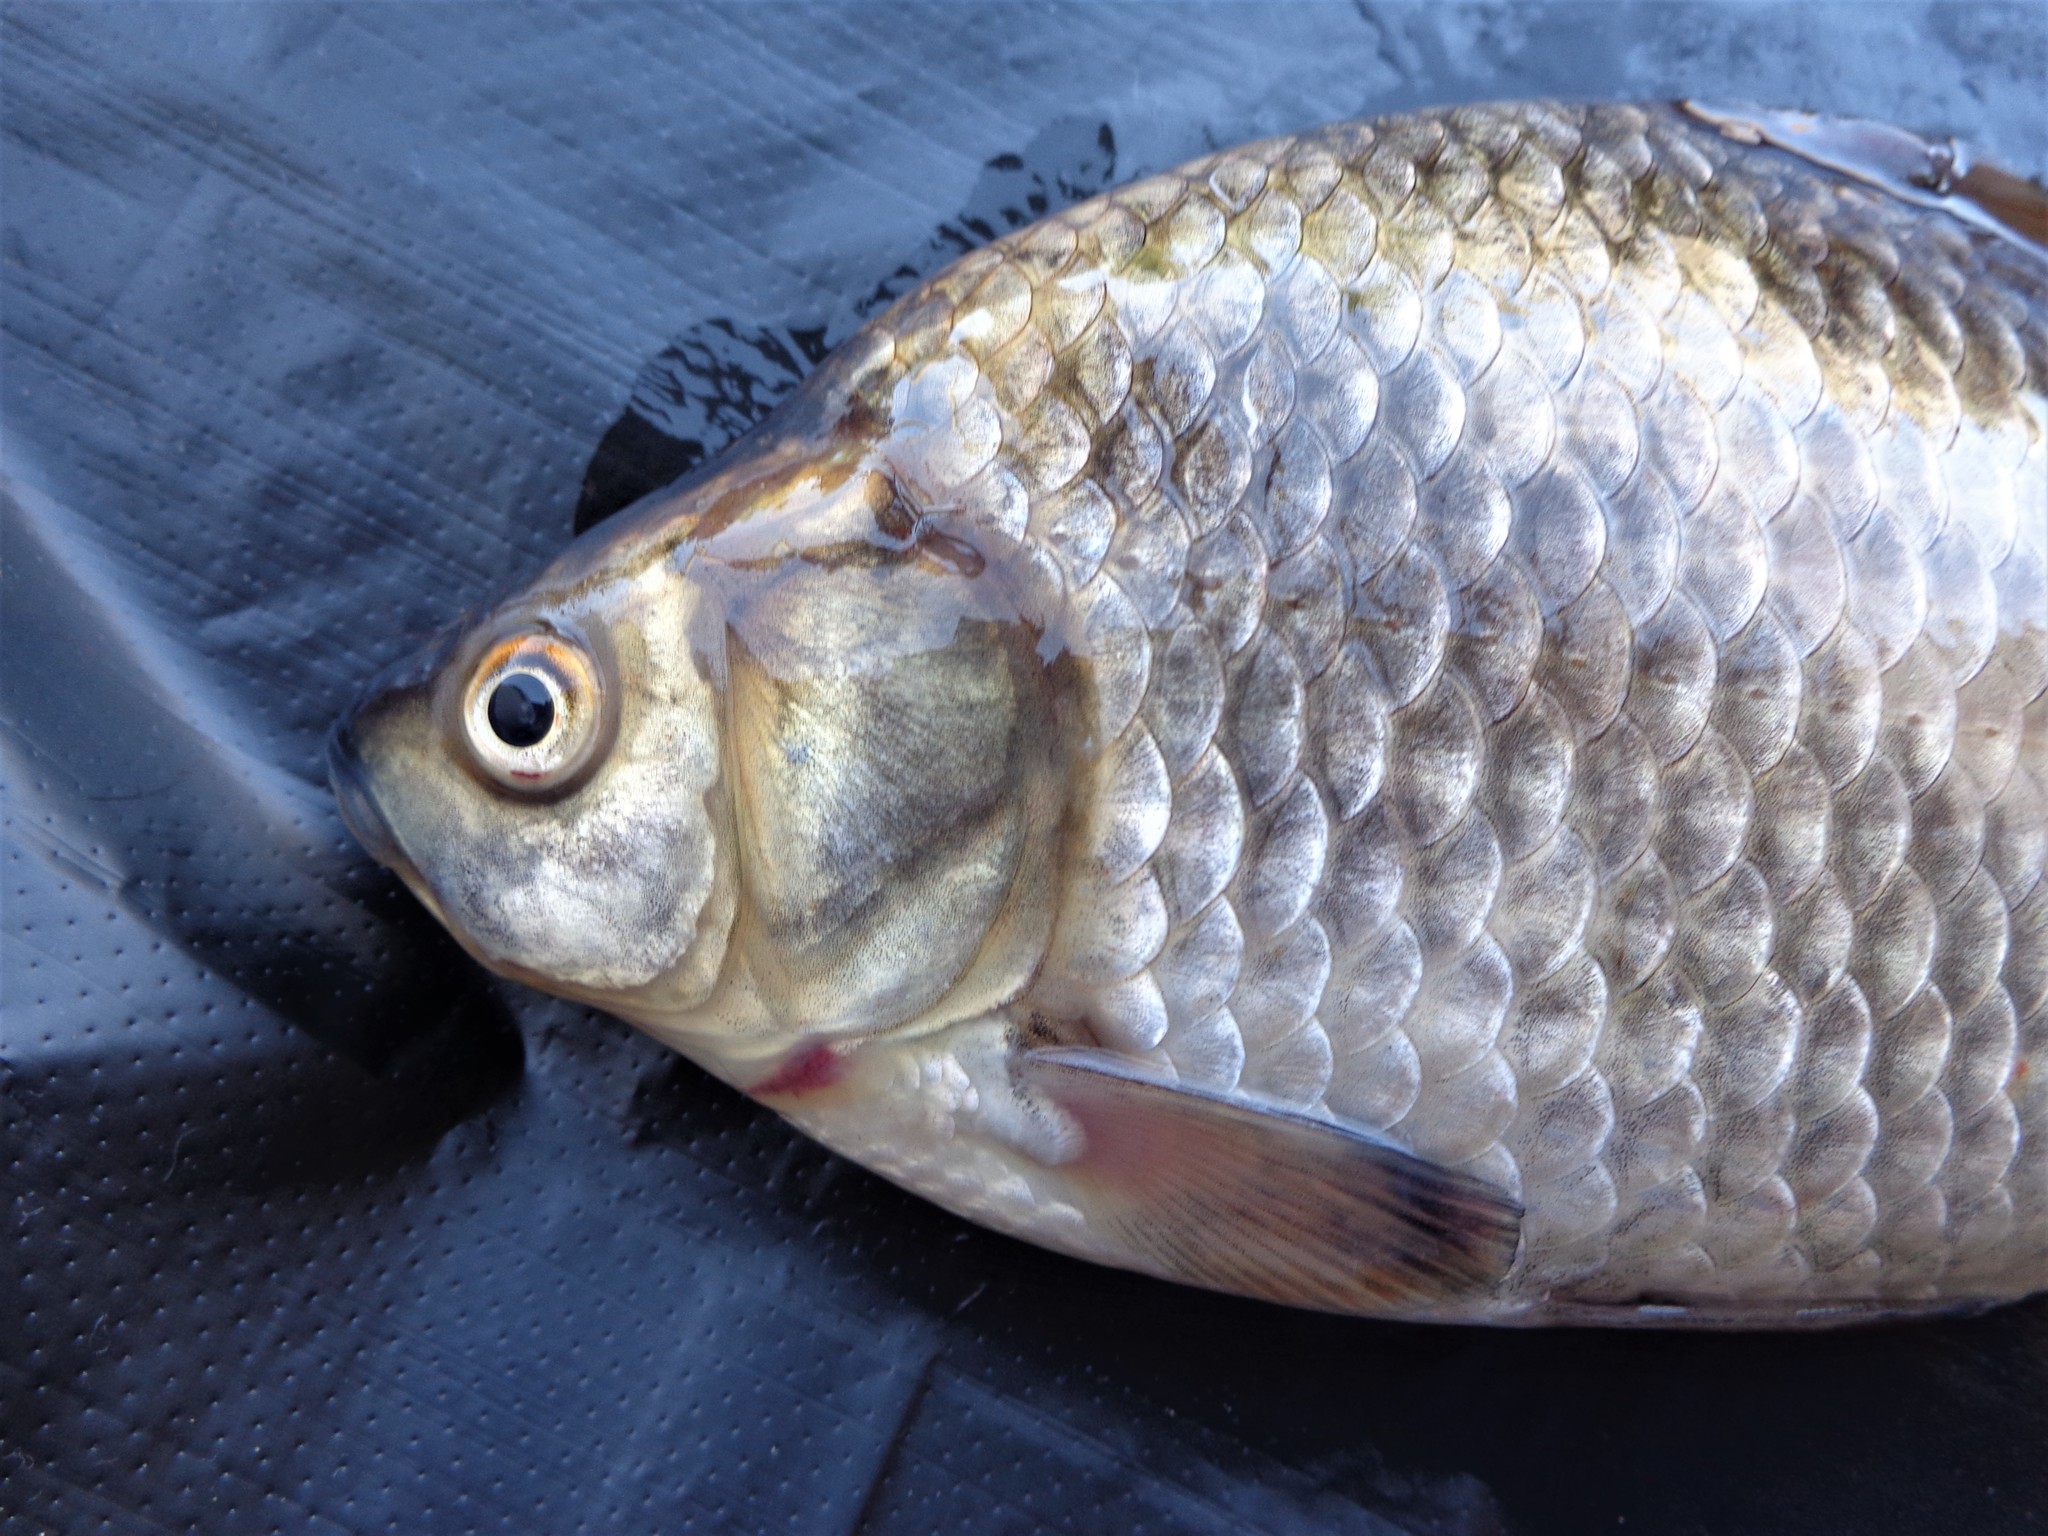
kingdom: Animalia
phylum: Chordata
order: Cypriniformes
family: Cyprinidae
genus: Carassius
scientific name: Carassius gibelio
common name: Prussian carp
